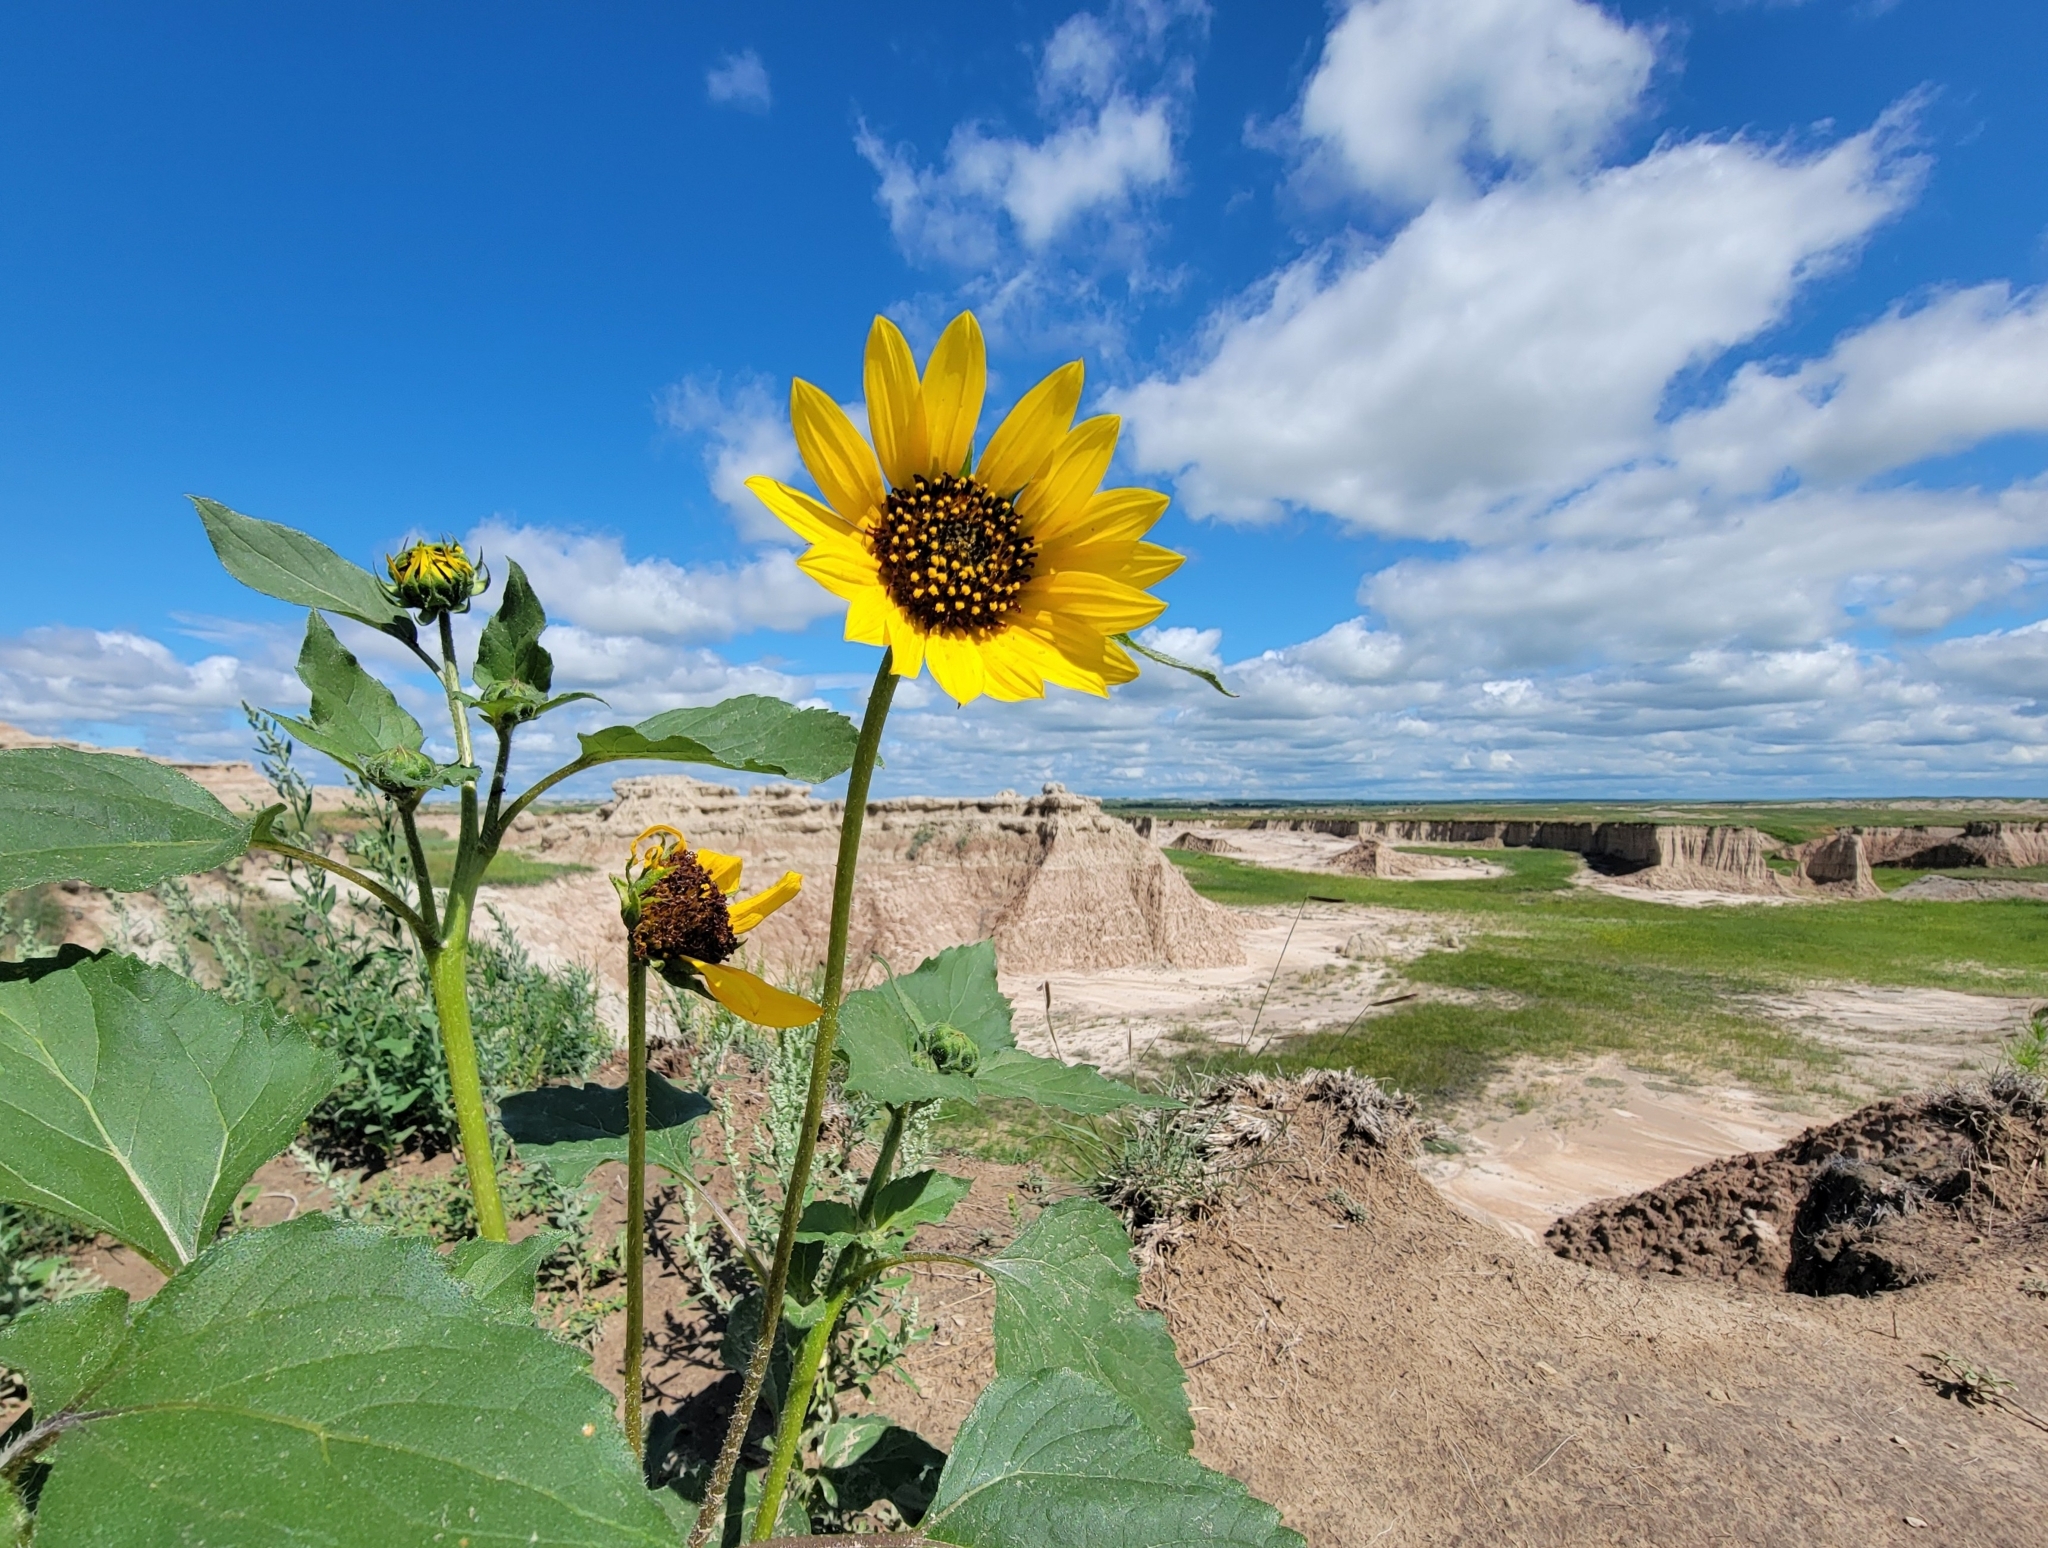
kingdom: Plantae
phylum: Tracheophyta
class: Magnoliopsida
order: Asterales
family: Asteraceae
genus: Helianthus
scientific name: Helianthus annuus
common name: Sunflower
